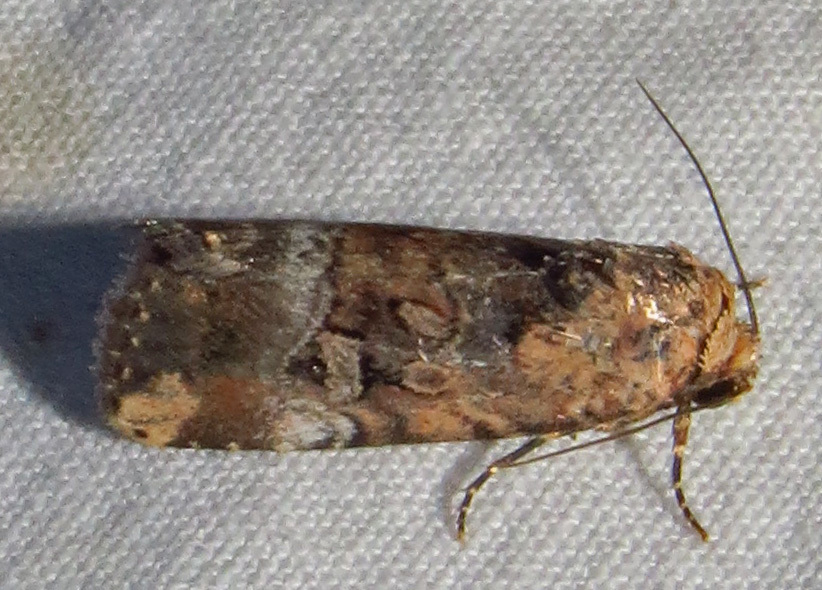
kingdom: Animalia
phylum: Arthropoda
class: Insecta
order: Lepidoptera
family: Noctuidae
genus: Elaphria
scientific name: Elaphria chalcedonia
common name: Chalcedony midget
